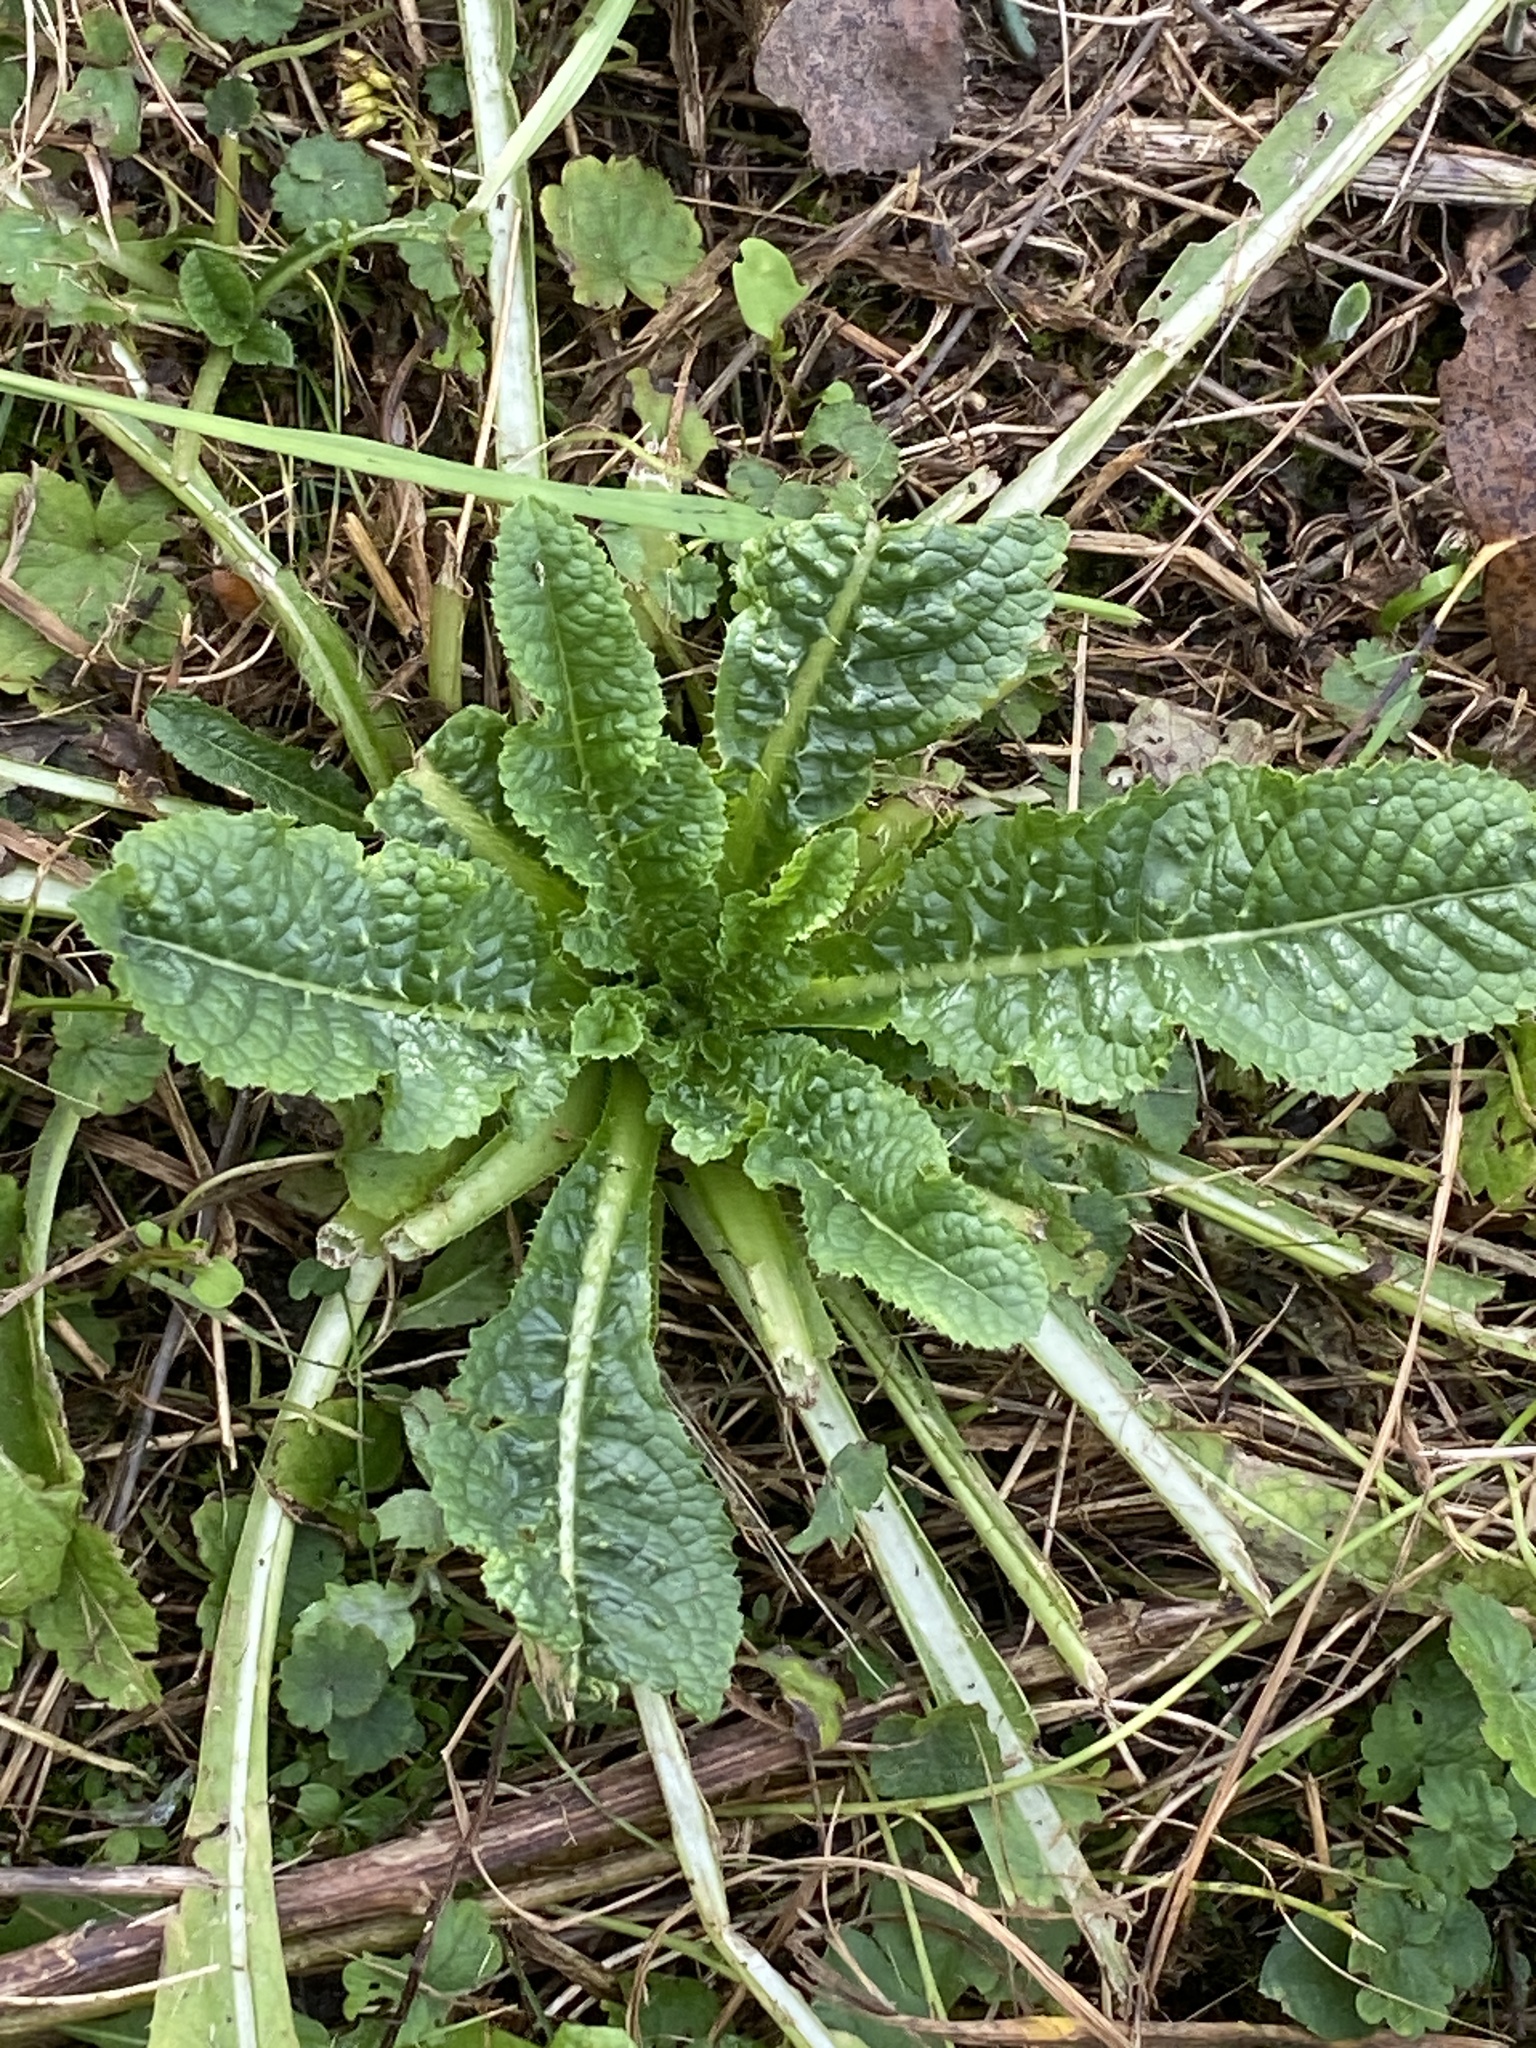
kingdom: Plantae
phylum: Tracheophyta
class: Magnoliopsida
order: Dipsacales
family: Caprifoliaceae
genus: Dipsacus
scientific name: Dipsacus fullonum
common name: Teasel
